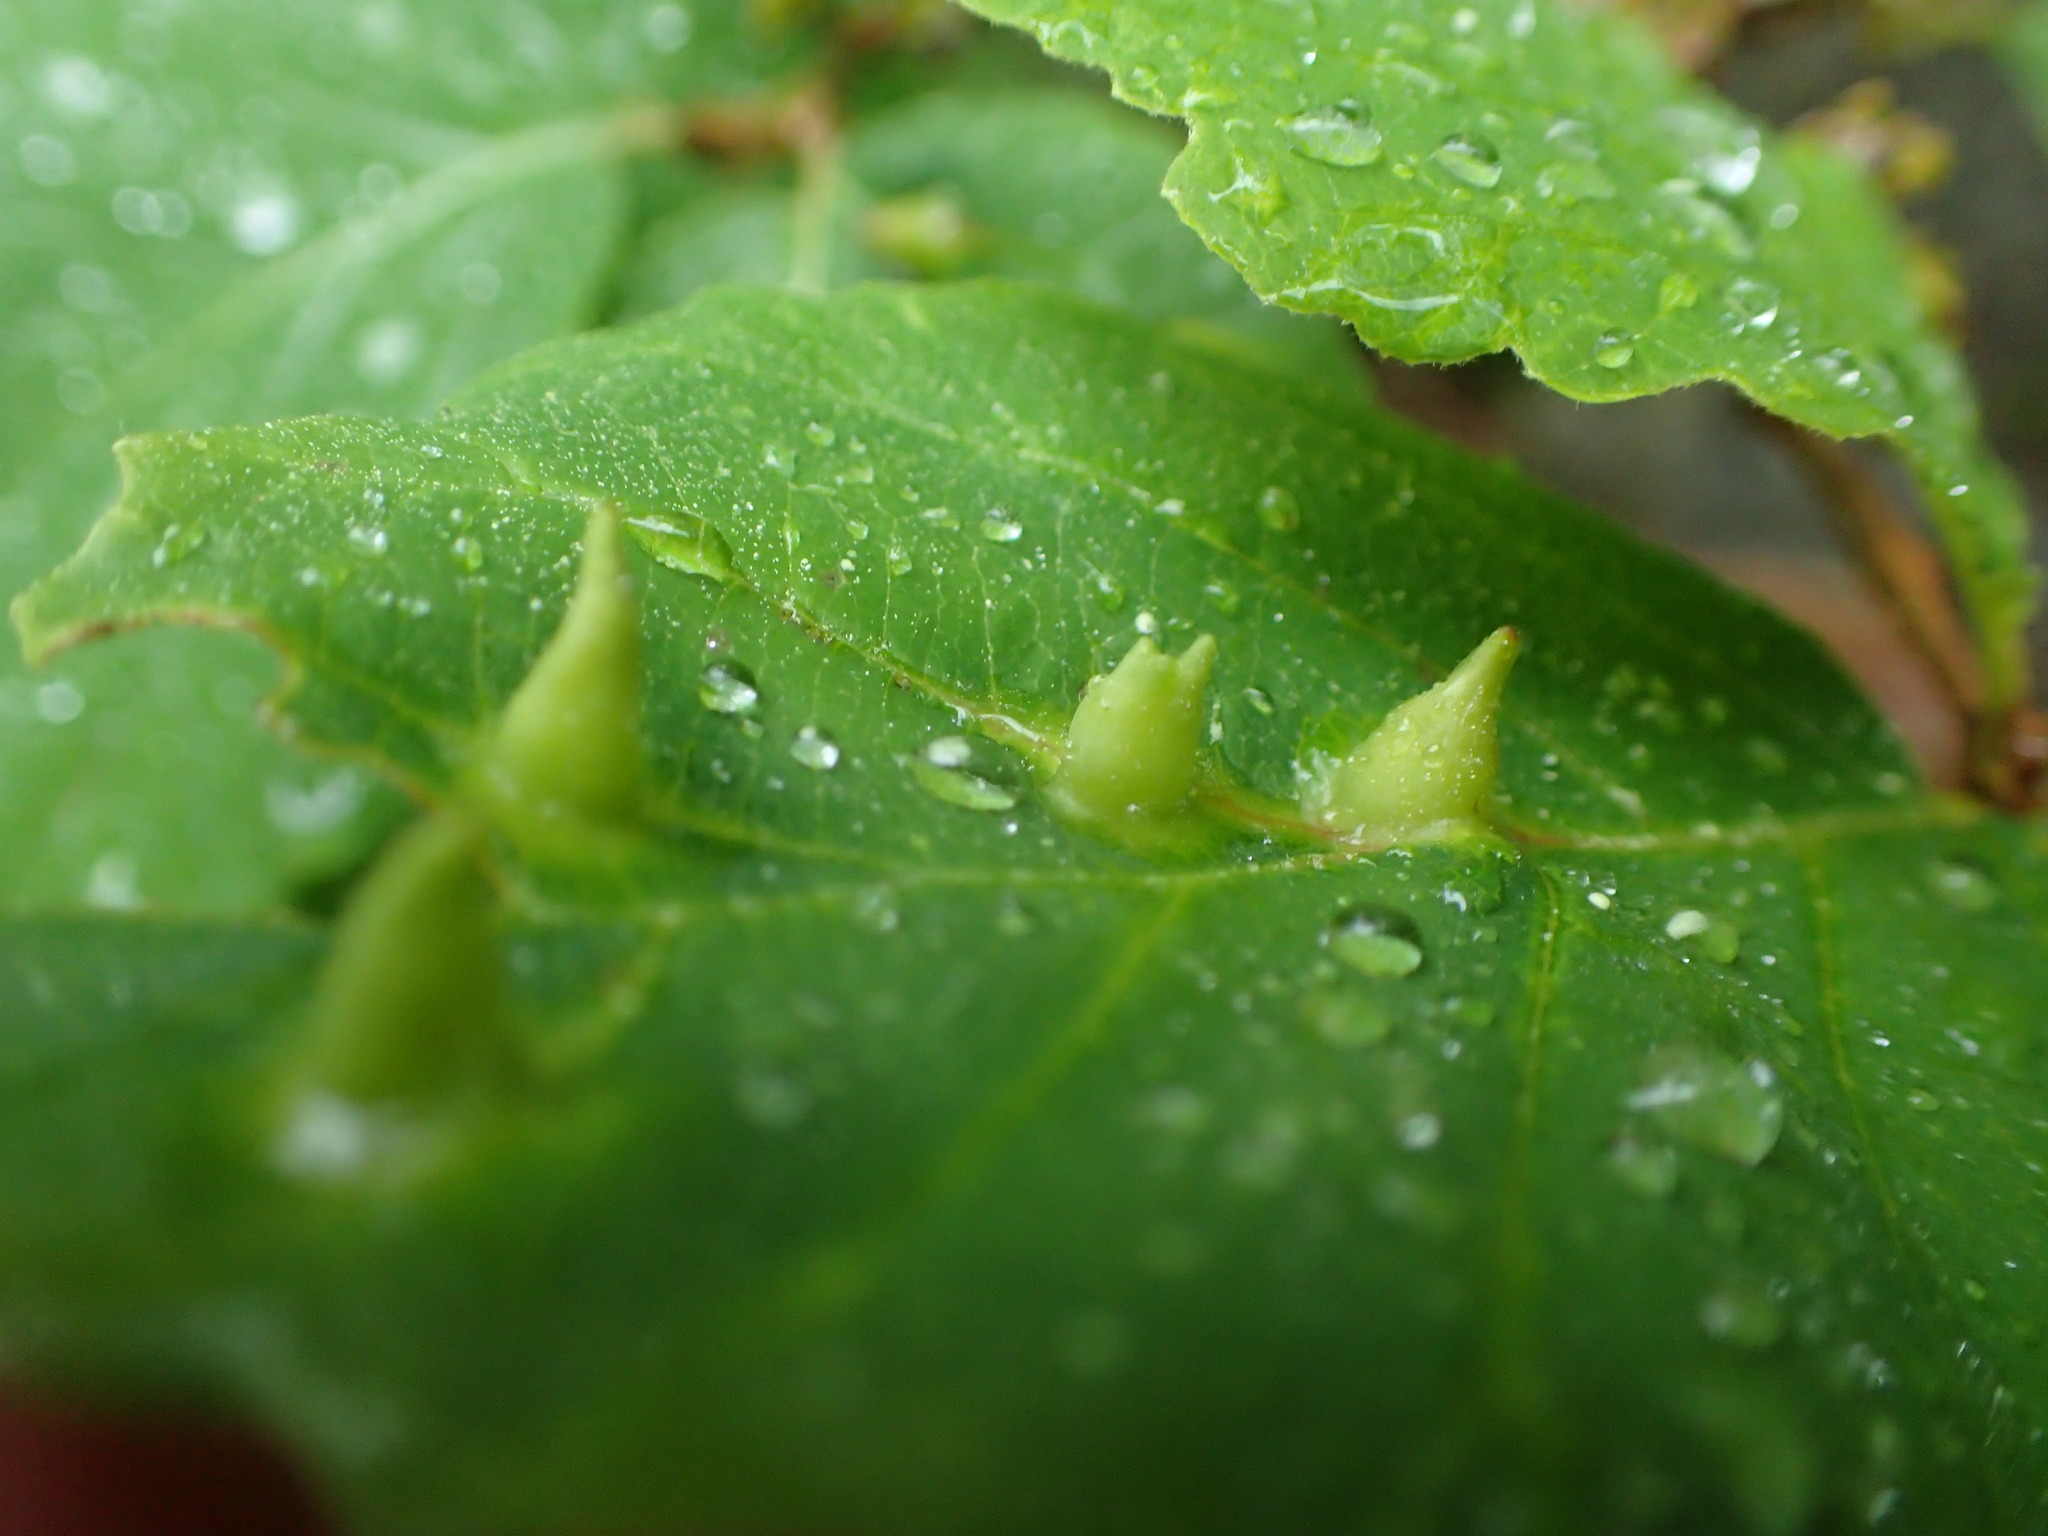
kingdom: Animalia
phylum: Arthropoda
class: Insecta
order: Hemiptera
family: Aphididae
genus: Hormaphis
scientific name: Hormaphis hamamelidis
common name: Witch-hazel cone gall aphid
